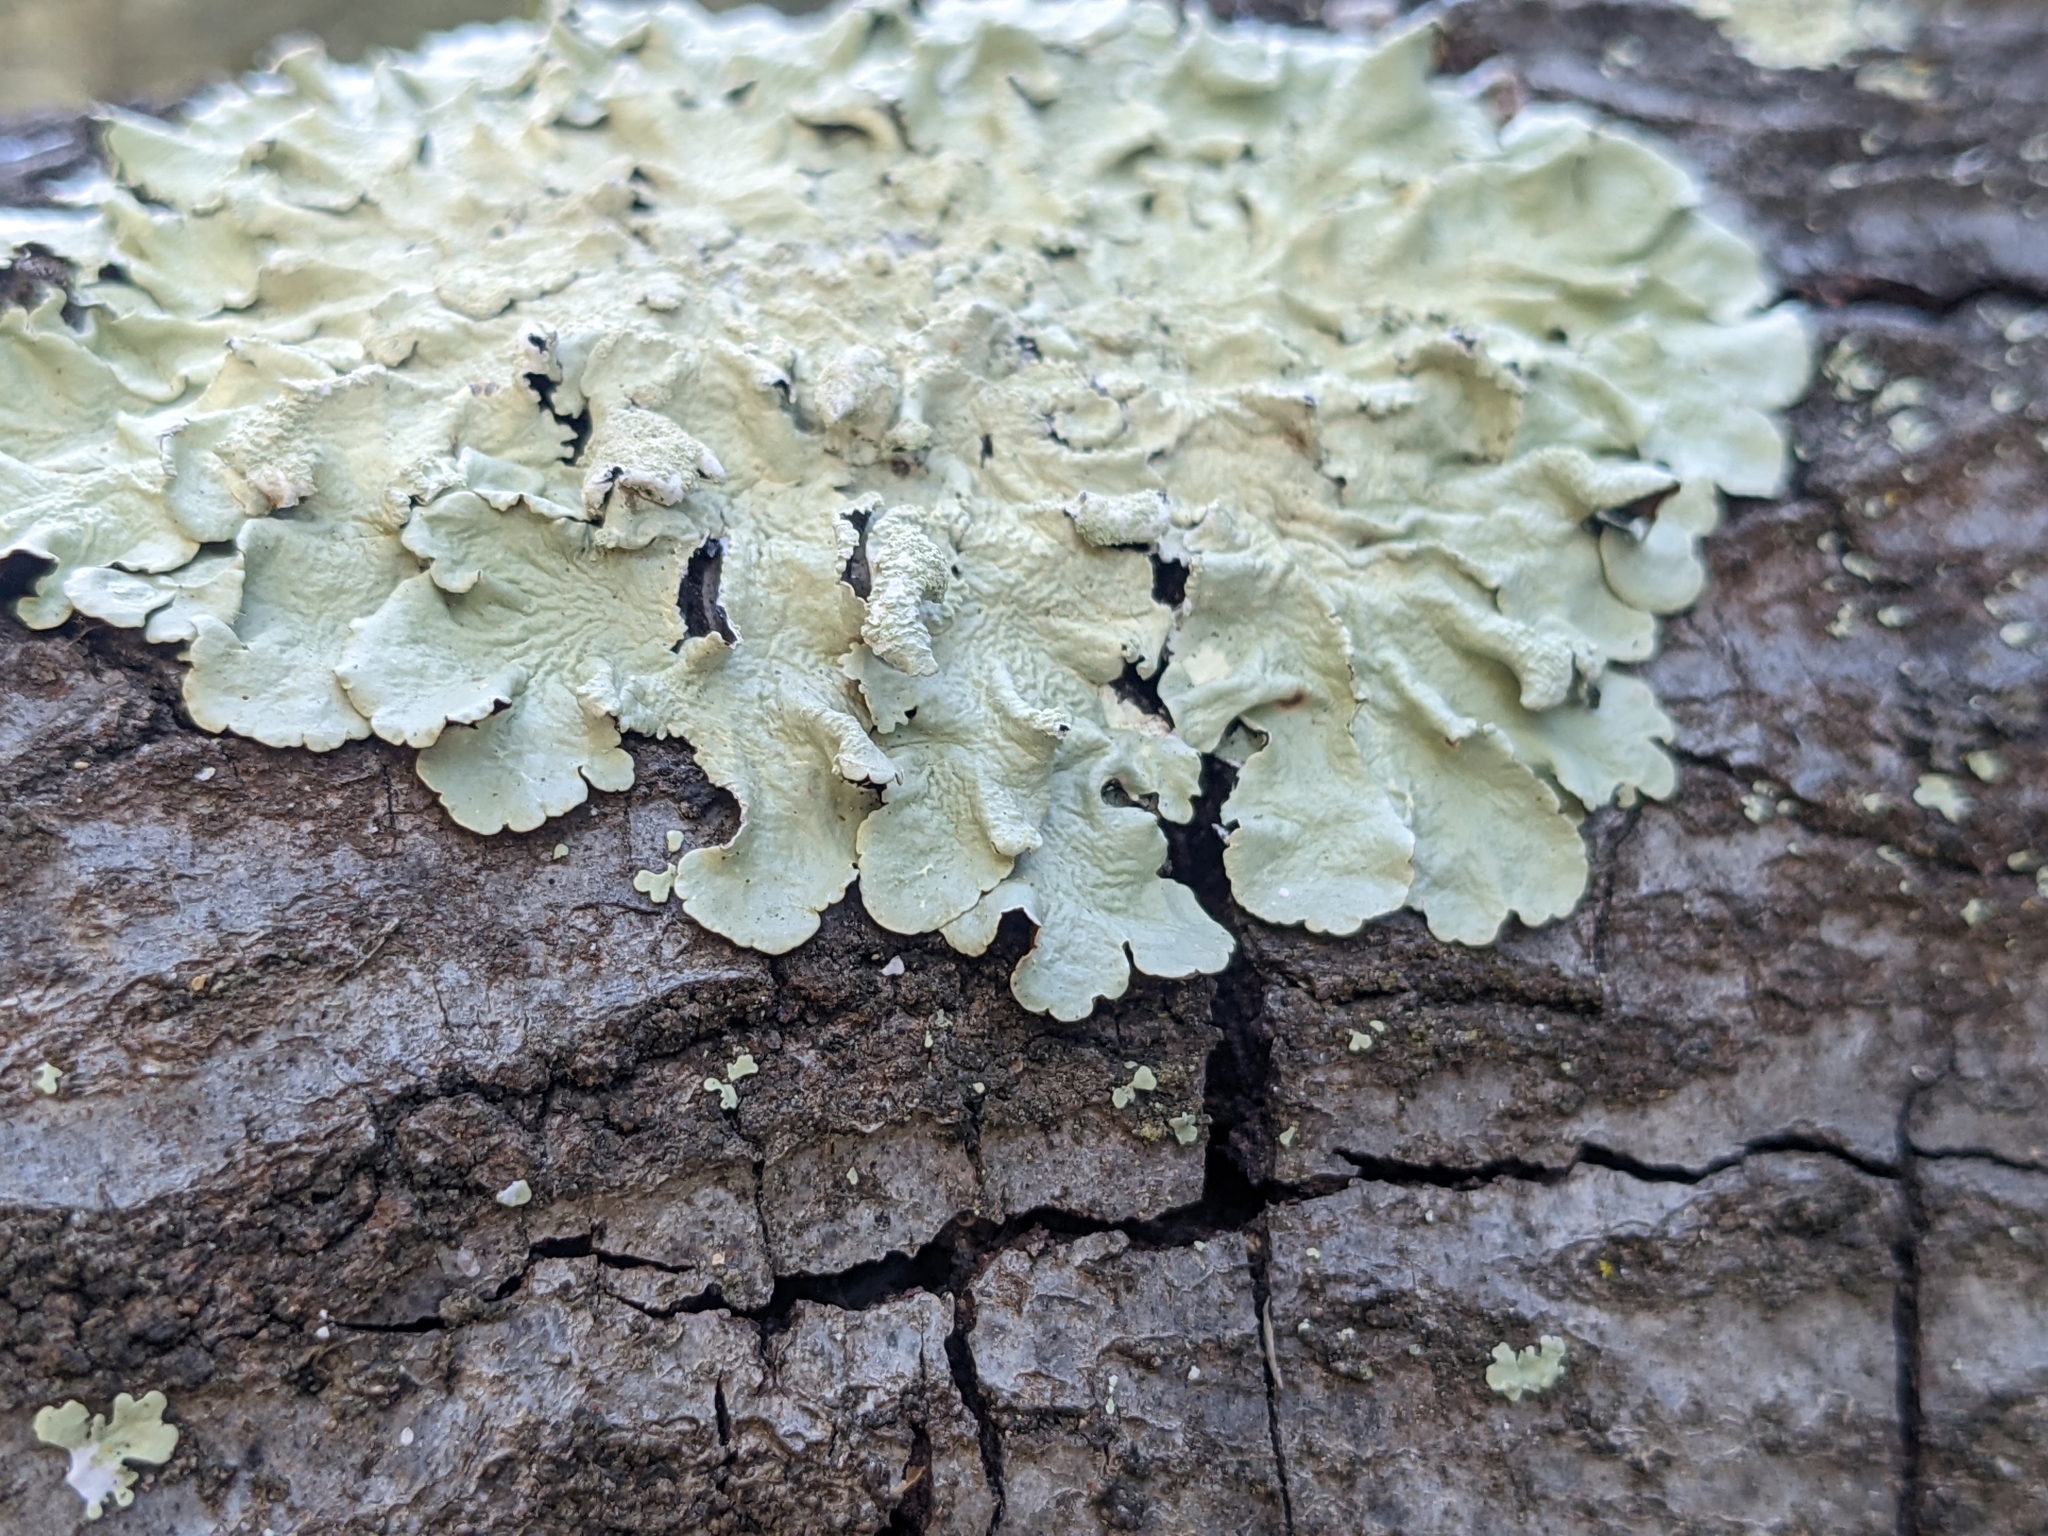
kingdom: Fungi
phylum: Ascomycota
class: Lecanoromycetes
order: Lecanorales
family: Parmeliaceae
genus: Flavoparmelia
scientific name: Flavoparmelia caperata
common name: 40-mile per hour lichen
